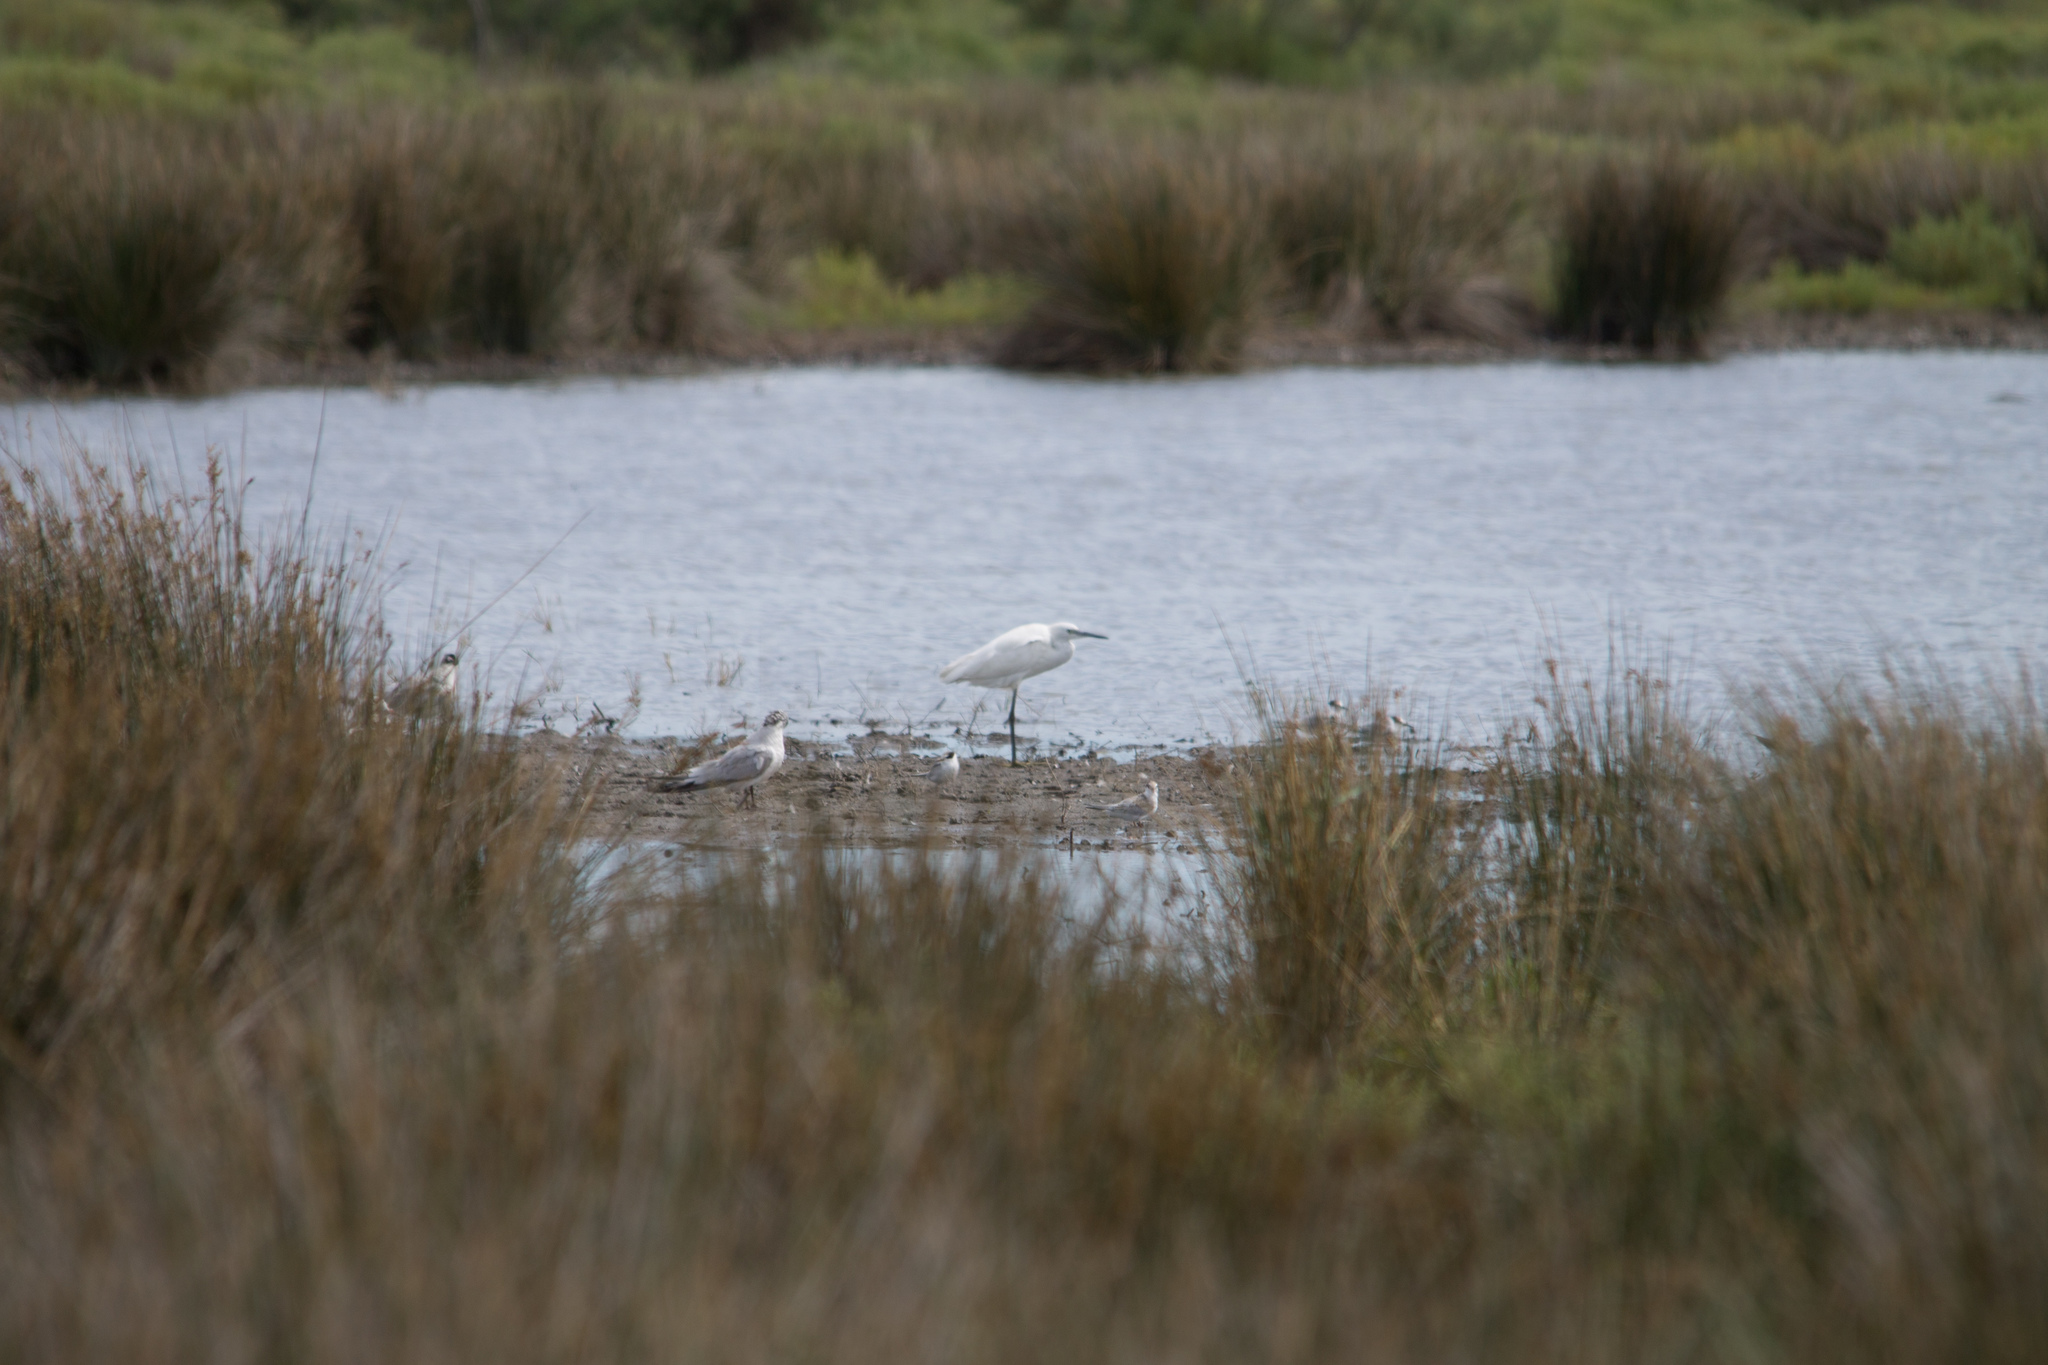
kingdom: Animalia
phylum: Chordata
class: Aves
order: Charadriiformes
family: Laridae
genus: Chroicocephalus
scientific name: Chroicocephalus ridibundus
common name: Black-headed gull
